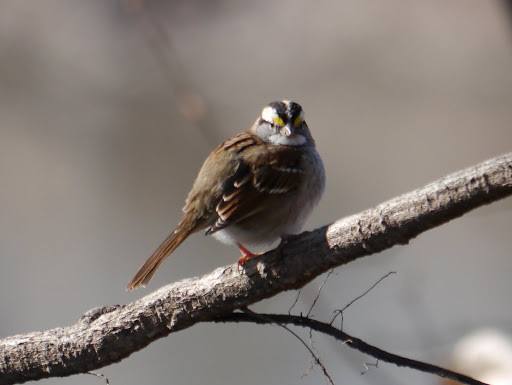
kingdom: Animalia
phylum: Chordata
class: Aves
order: Passeriformes
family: Passerellidae
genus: Zonotrichia
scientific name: Zonotrichia albicollis
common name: White-throated sparrow
